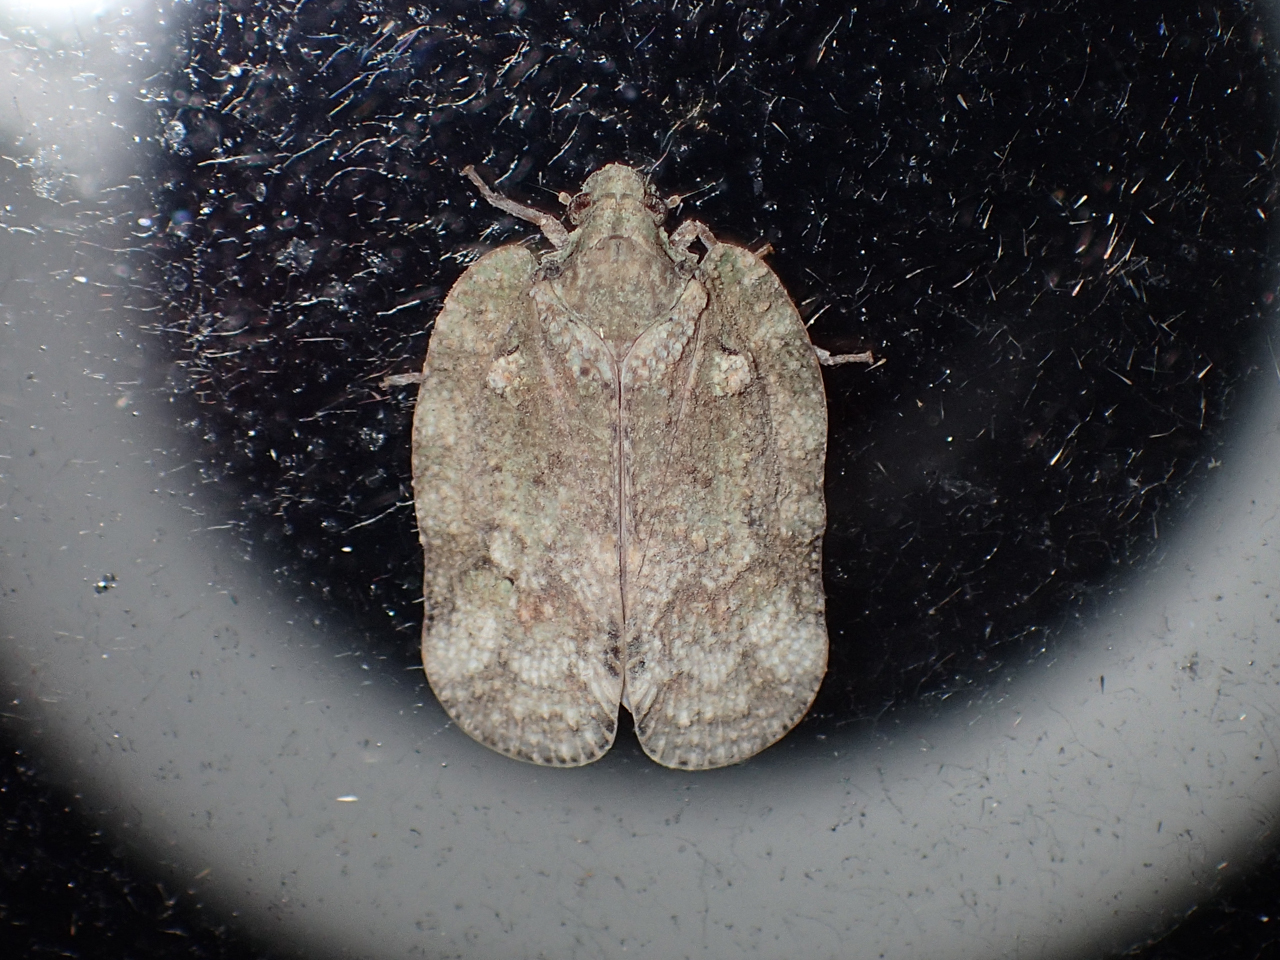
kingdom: Animalia
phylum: Arthropoda
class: Insecta
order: Hemiptera
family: Flatidae
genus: Flataloides
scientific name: Flataloides scabrosa
